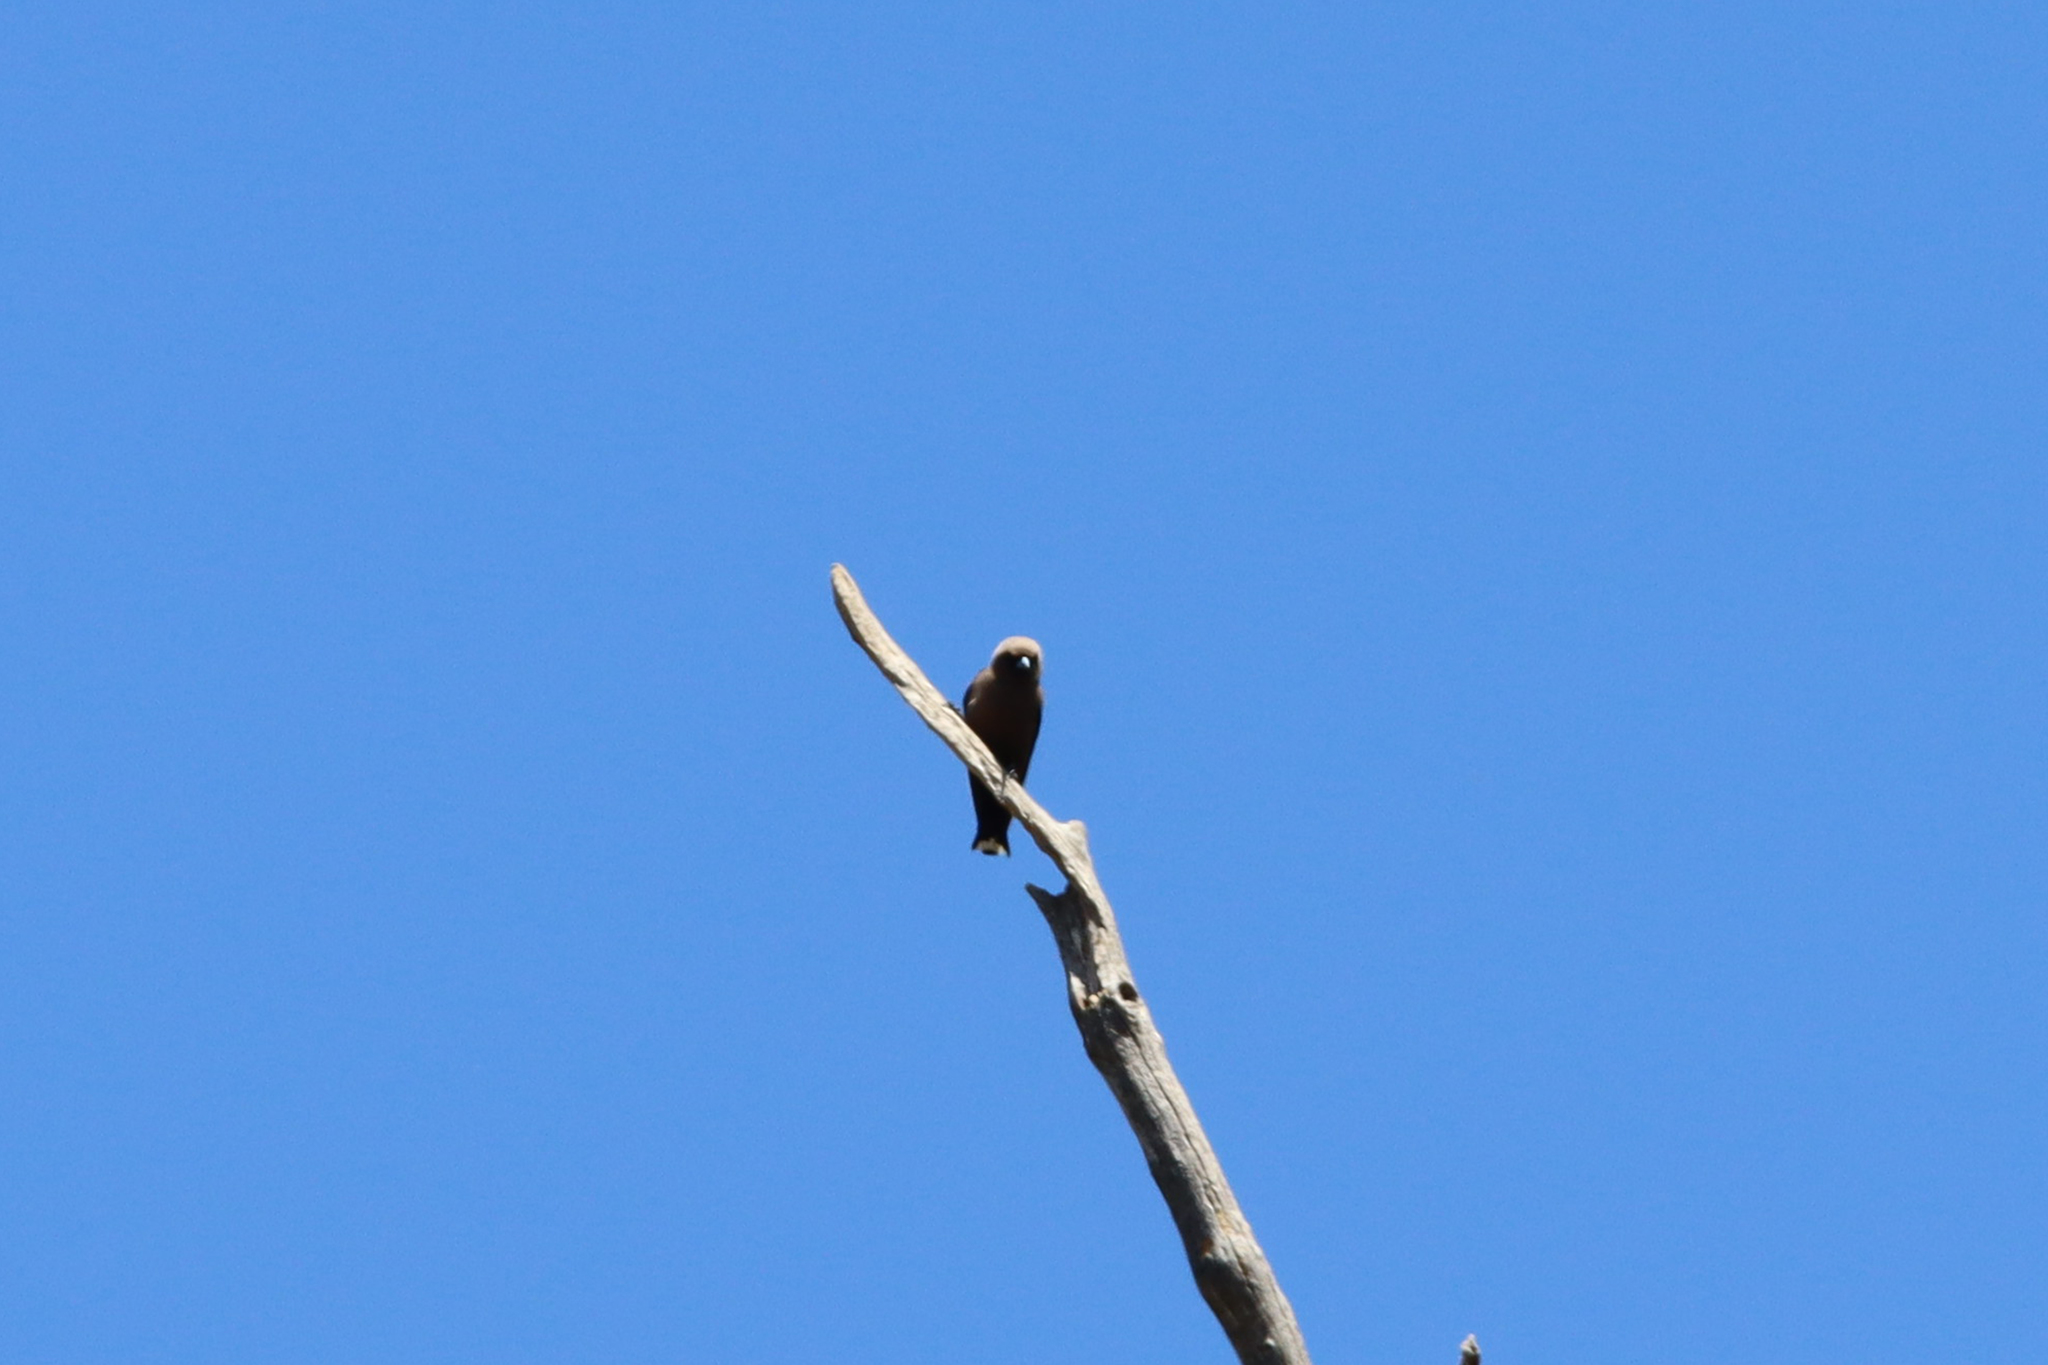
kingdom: Animalia
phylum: Chordata
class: Aves
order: Passeriformes
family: Artamidae
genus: Artamus
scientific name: Artamus cyanopterus
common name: Dusky woodswallow
